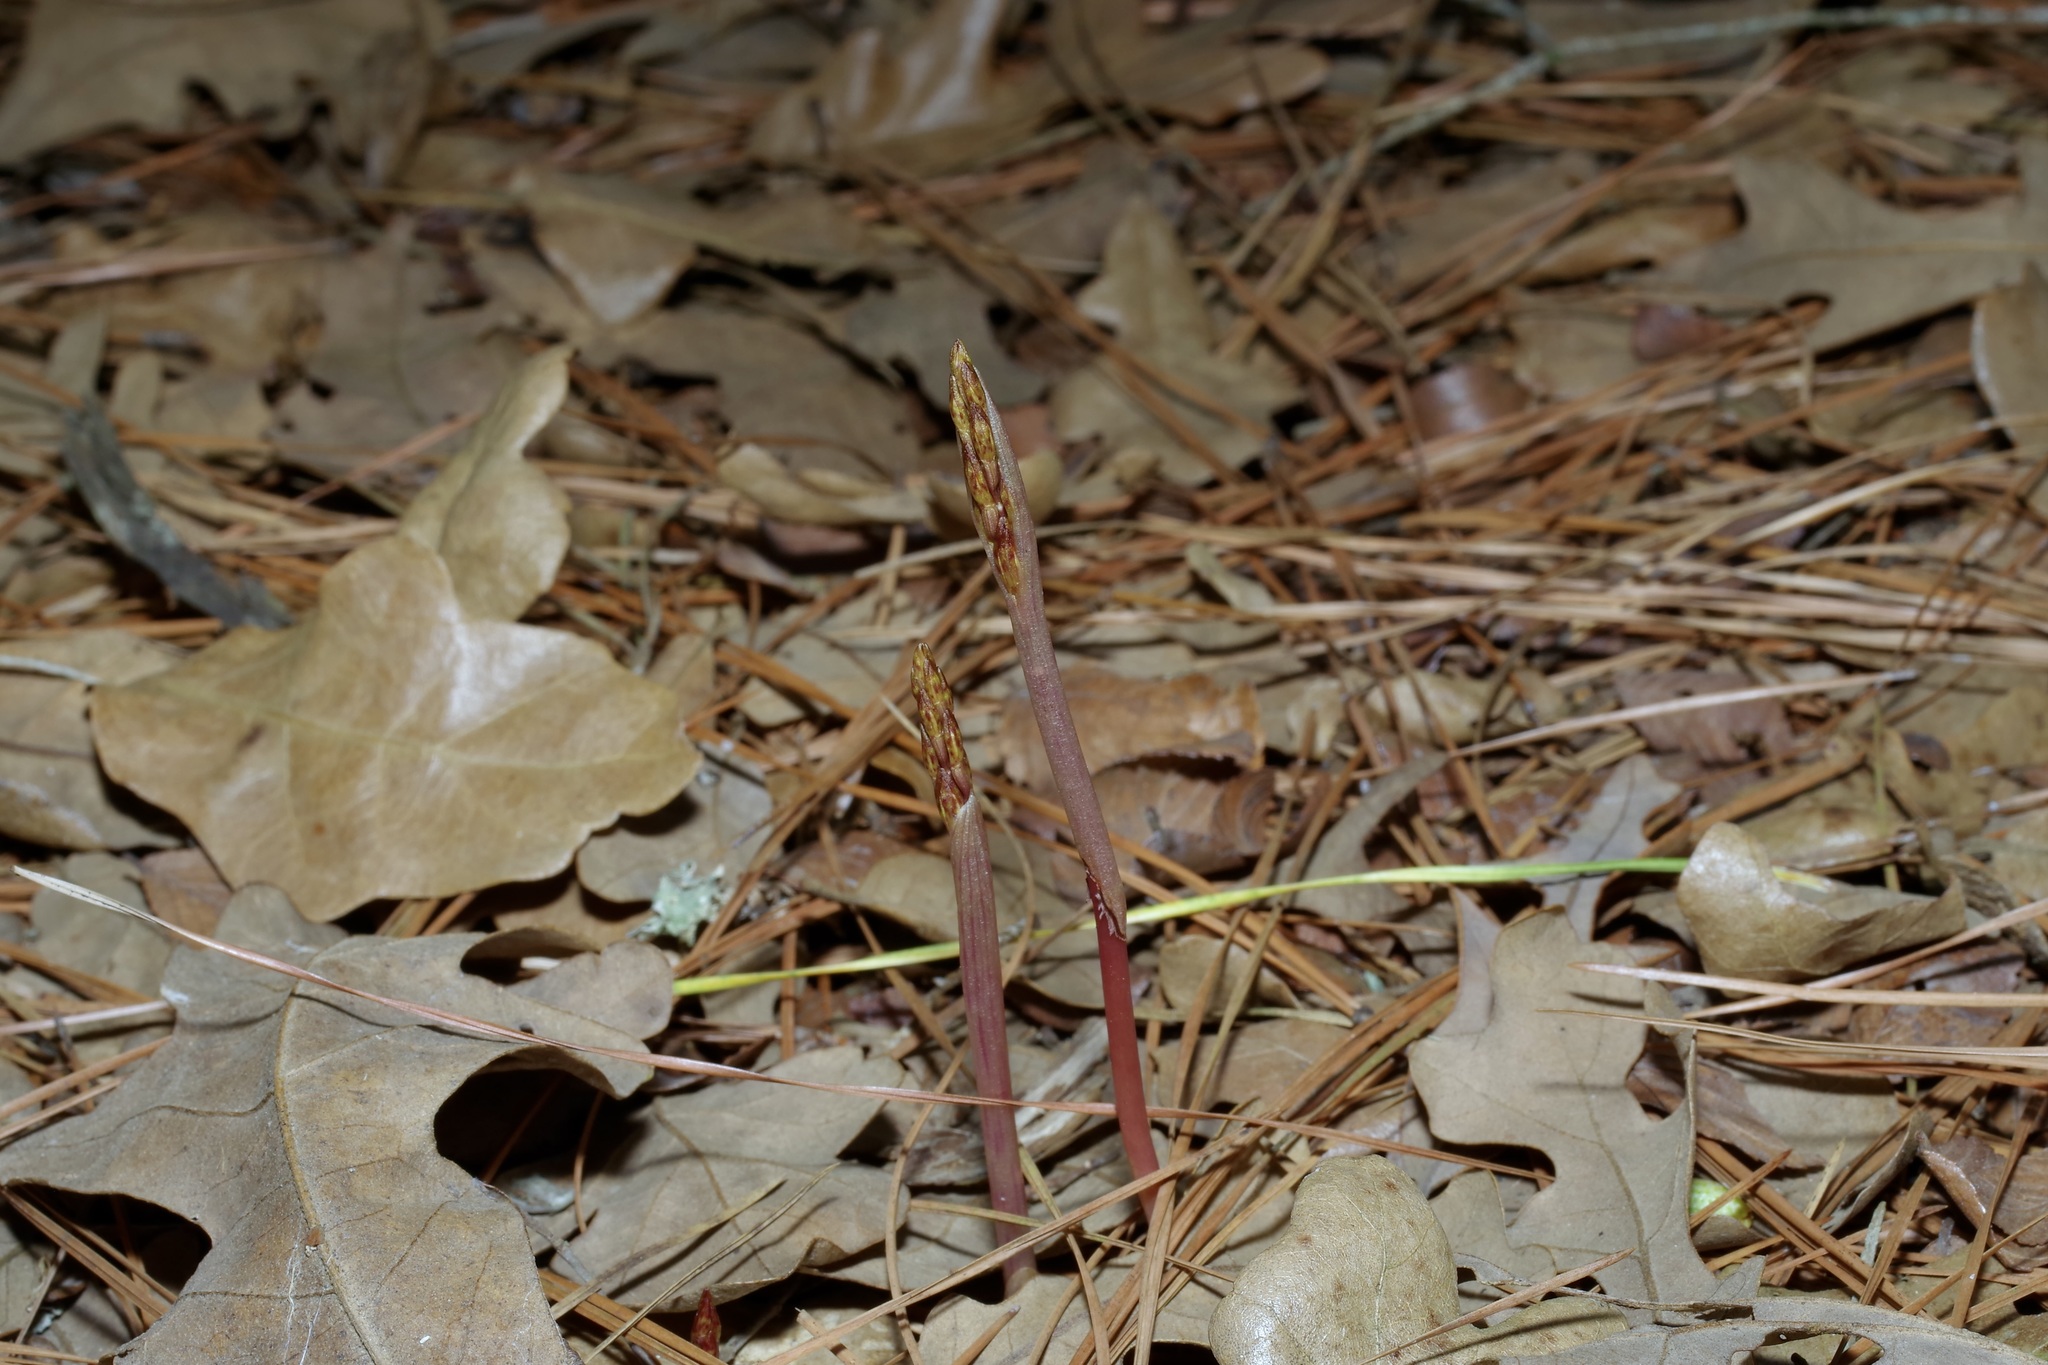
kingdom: Plantae
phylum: Tracheophyta
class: Liliopsida
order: Asparagales
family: Orchidaceae
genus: Corallorhiza
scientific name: Corallorhiza wisteriana
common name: Spring coralroot
